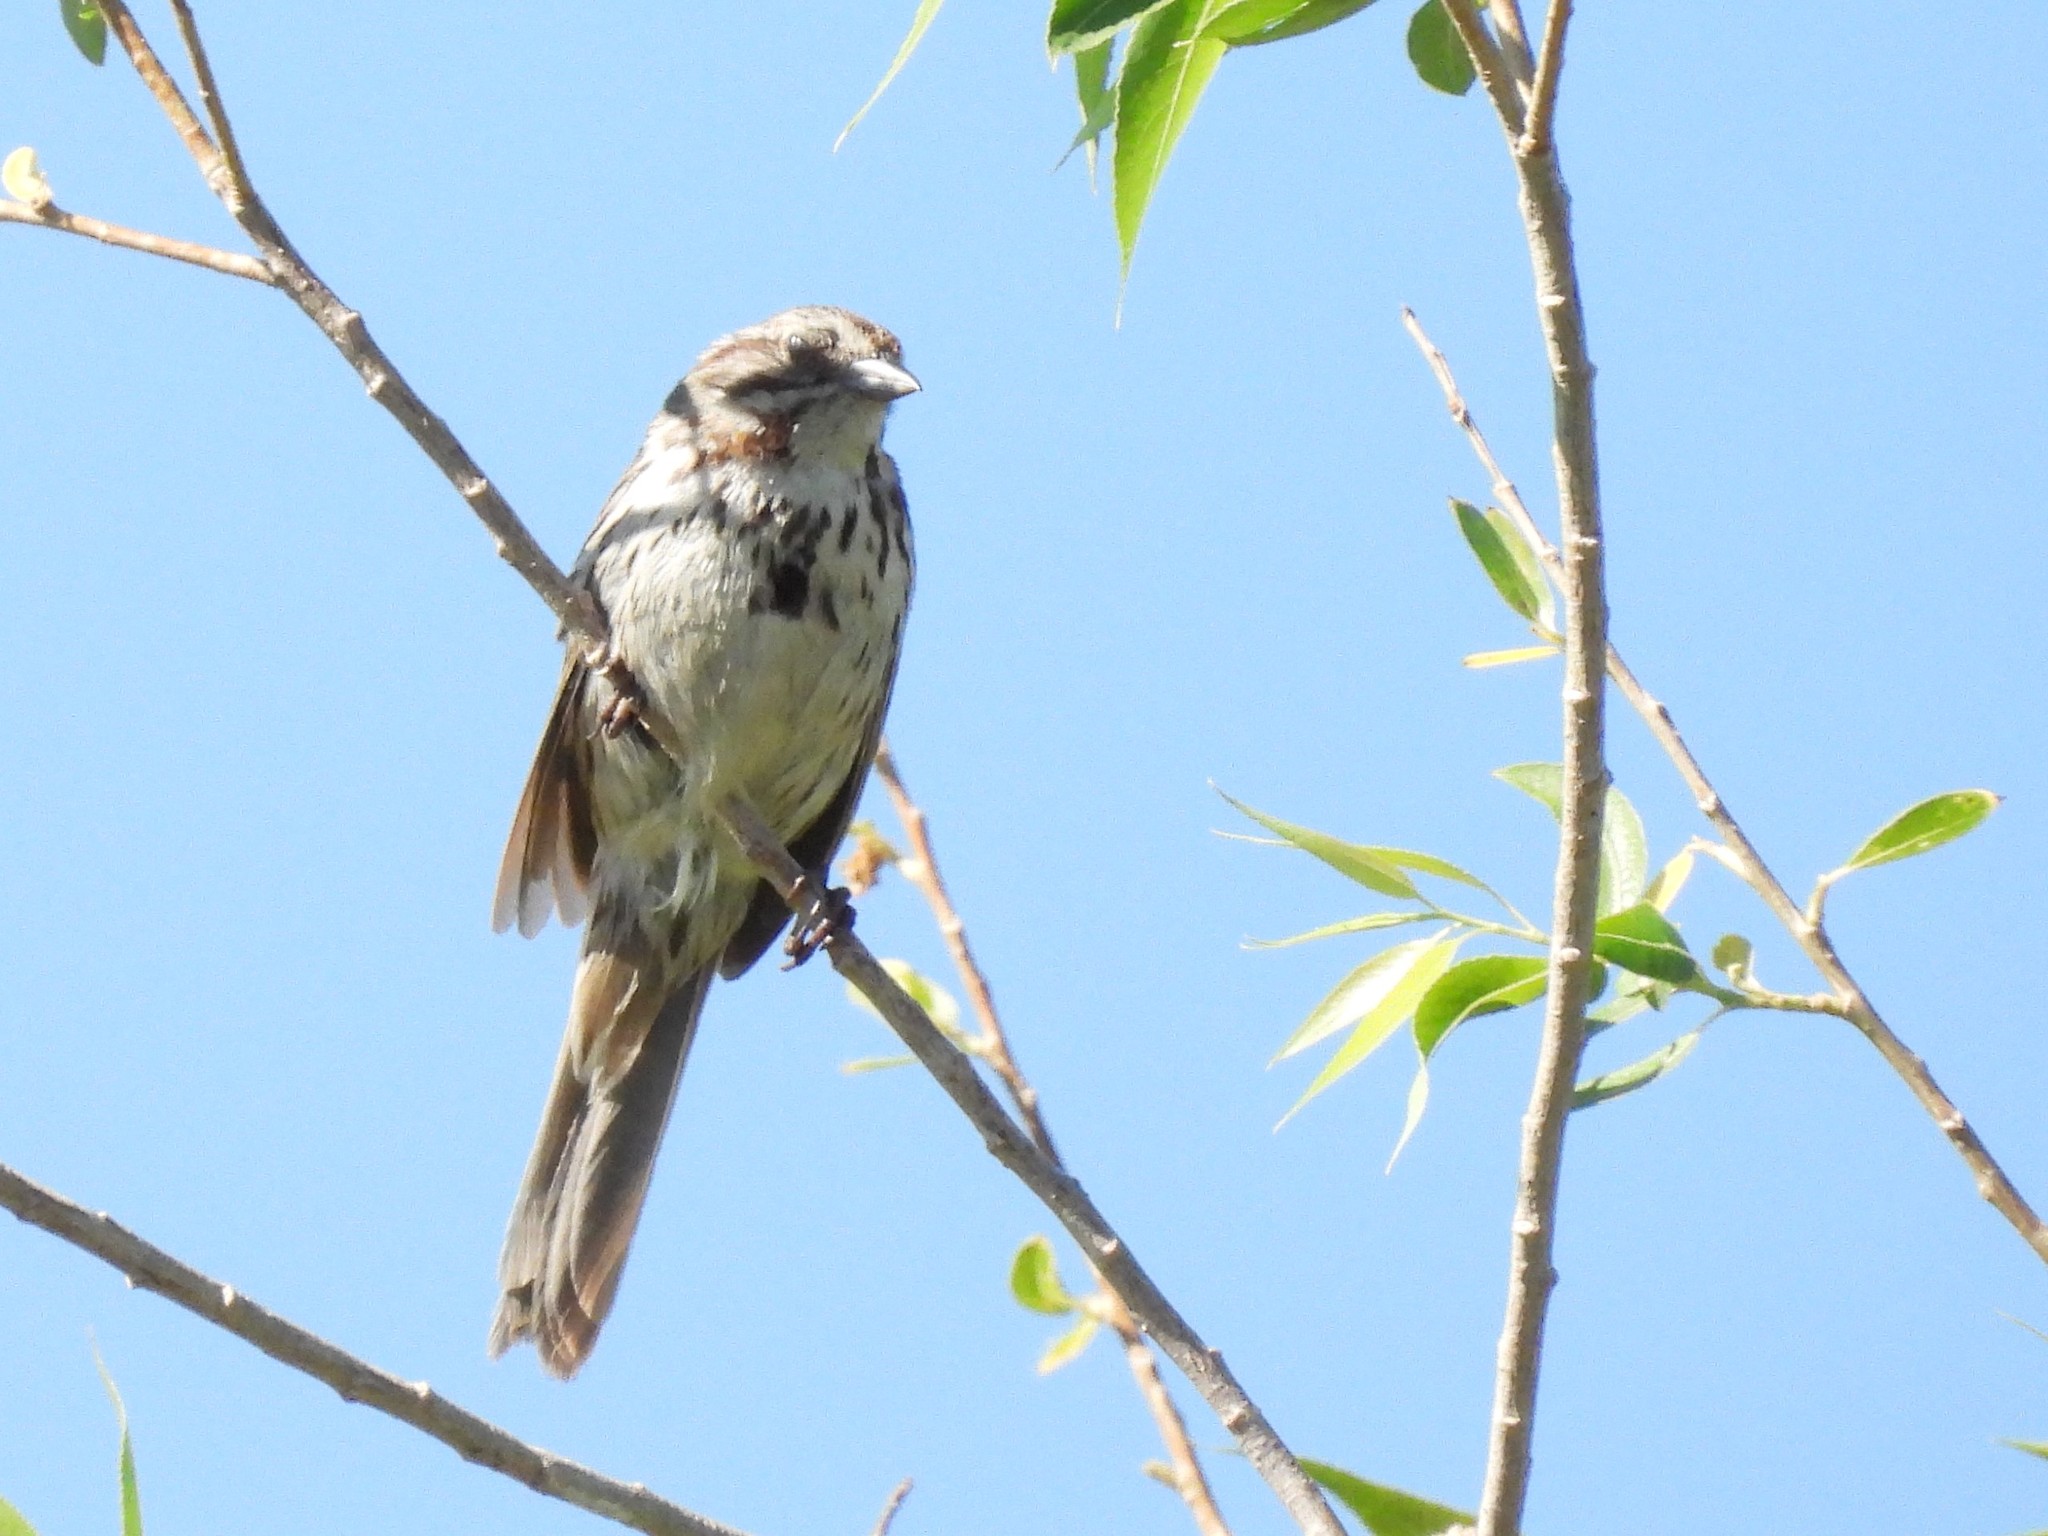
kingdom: Animalia
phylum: Chordata
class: Aves
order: Passeriformes
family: Passerellidae
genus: Melospiza
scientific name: Melospiza melodia
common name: Song sparrow
